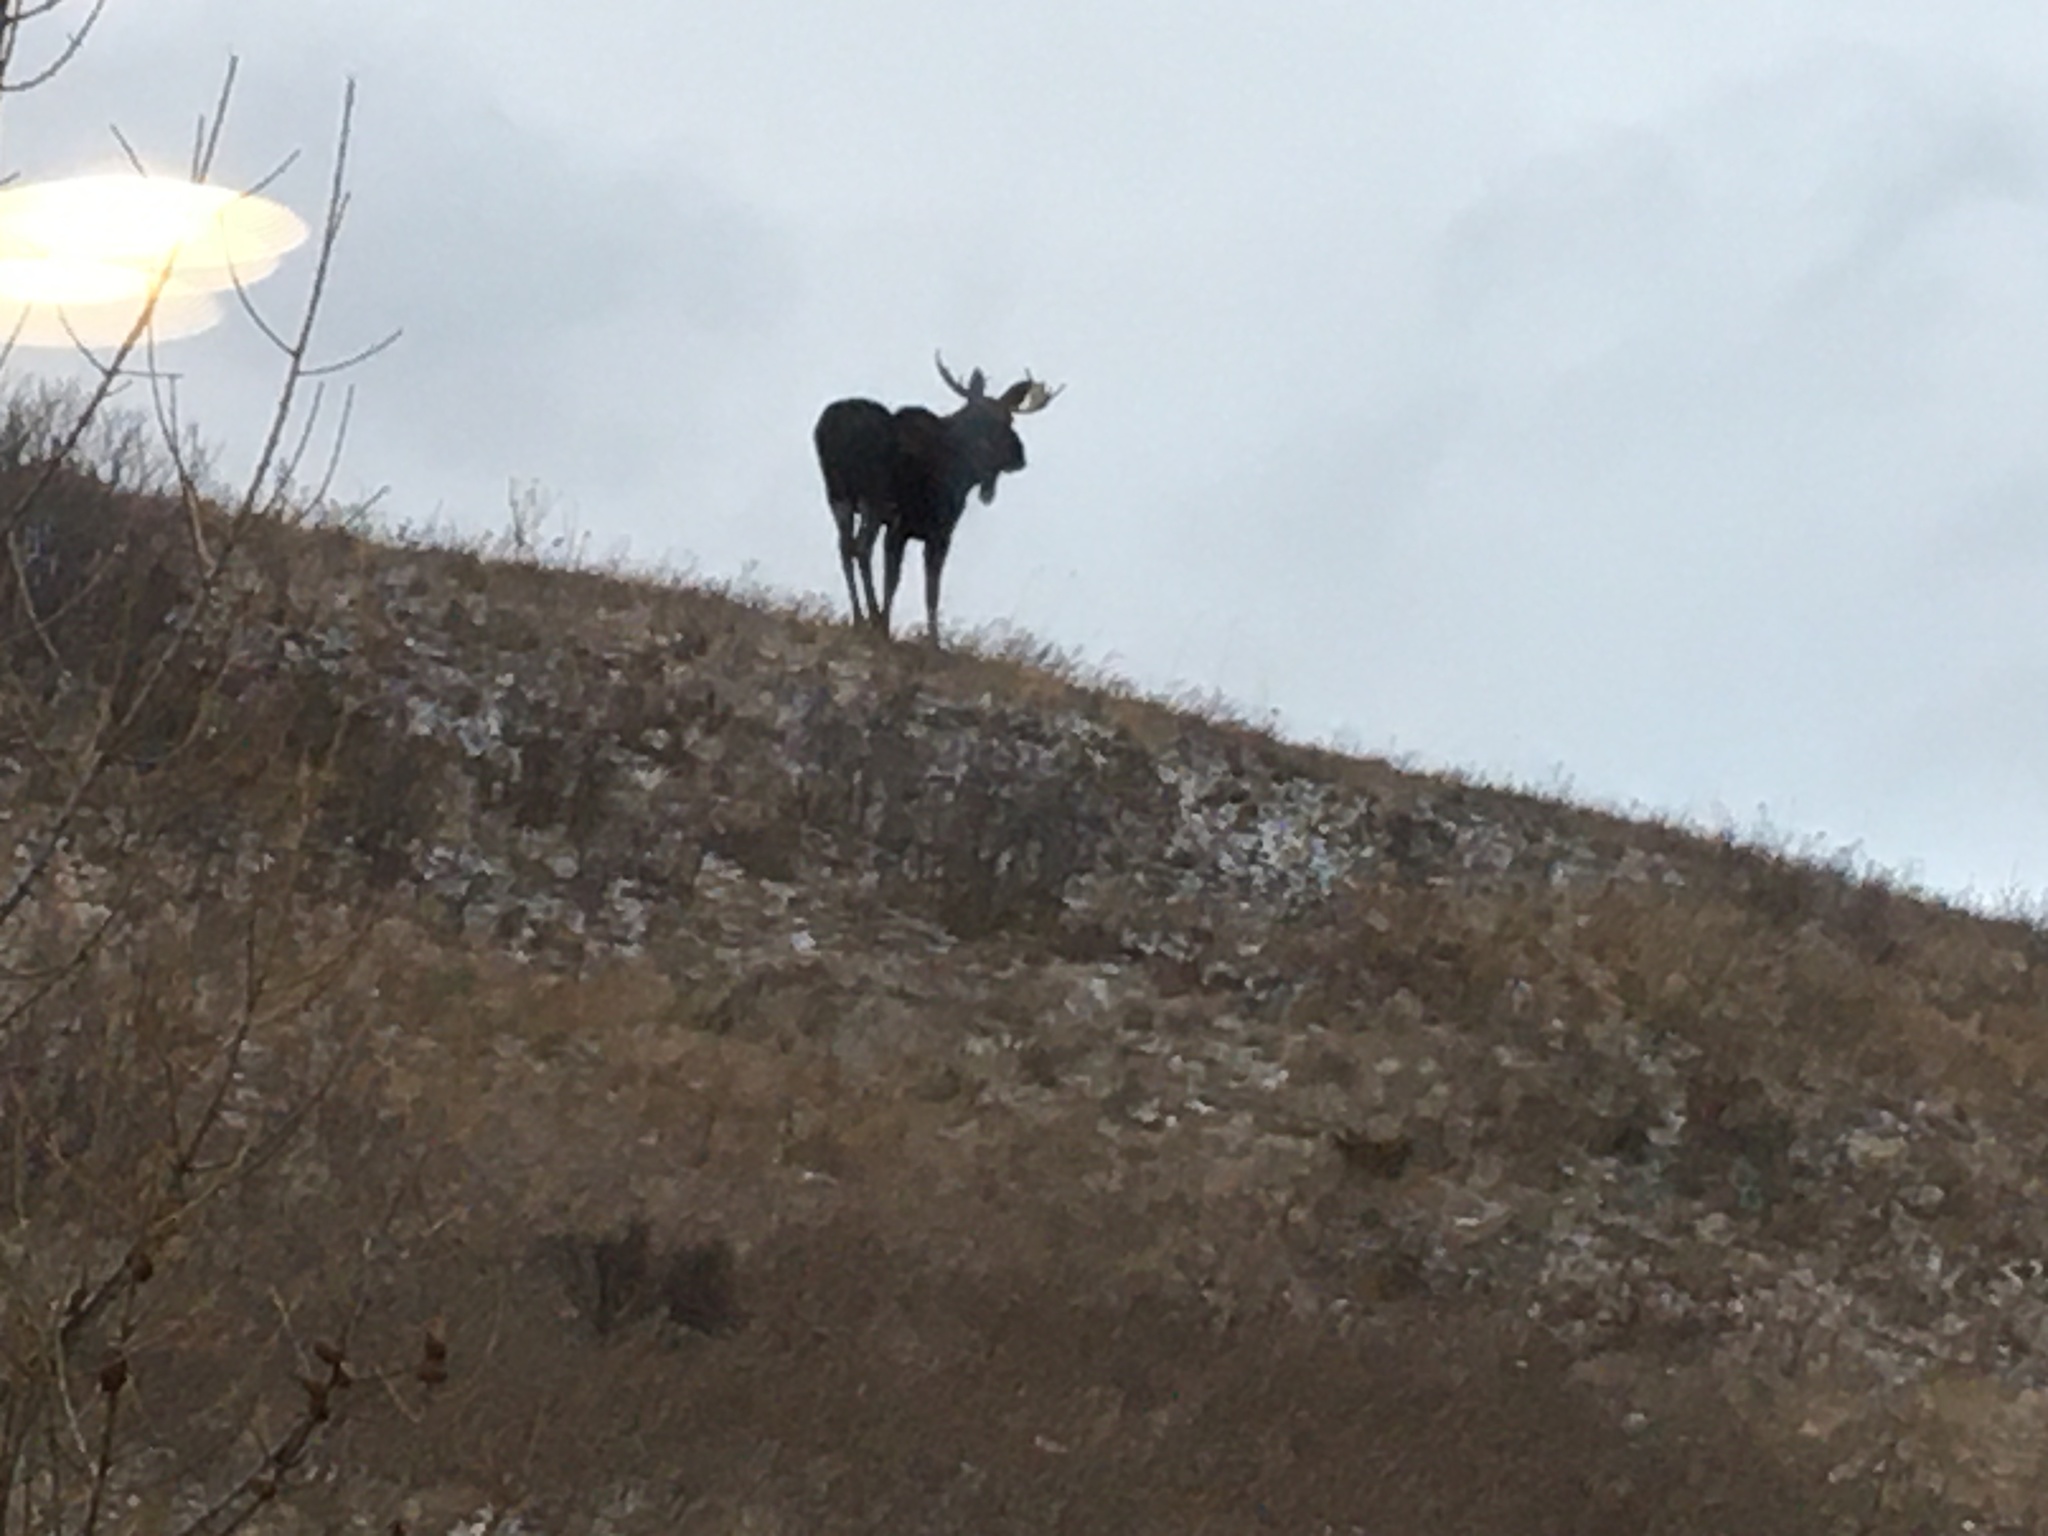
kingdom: Animalia
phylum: Chordata
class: Mammalia
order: Artiodactyla
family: Cervidae
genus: Alces
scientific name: Alces alces
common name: Moose
